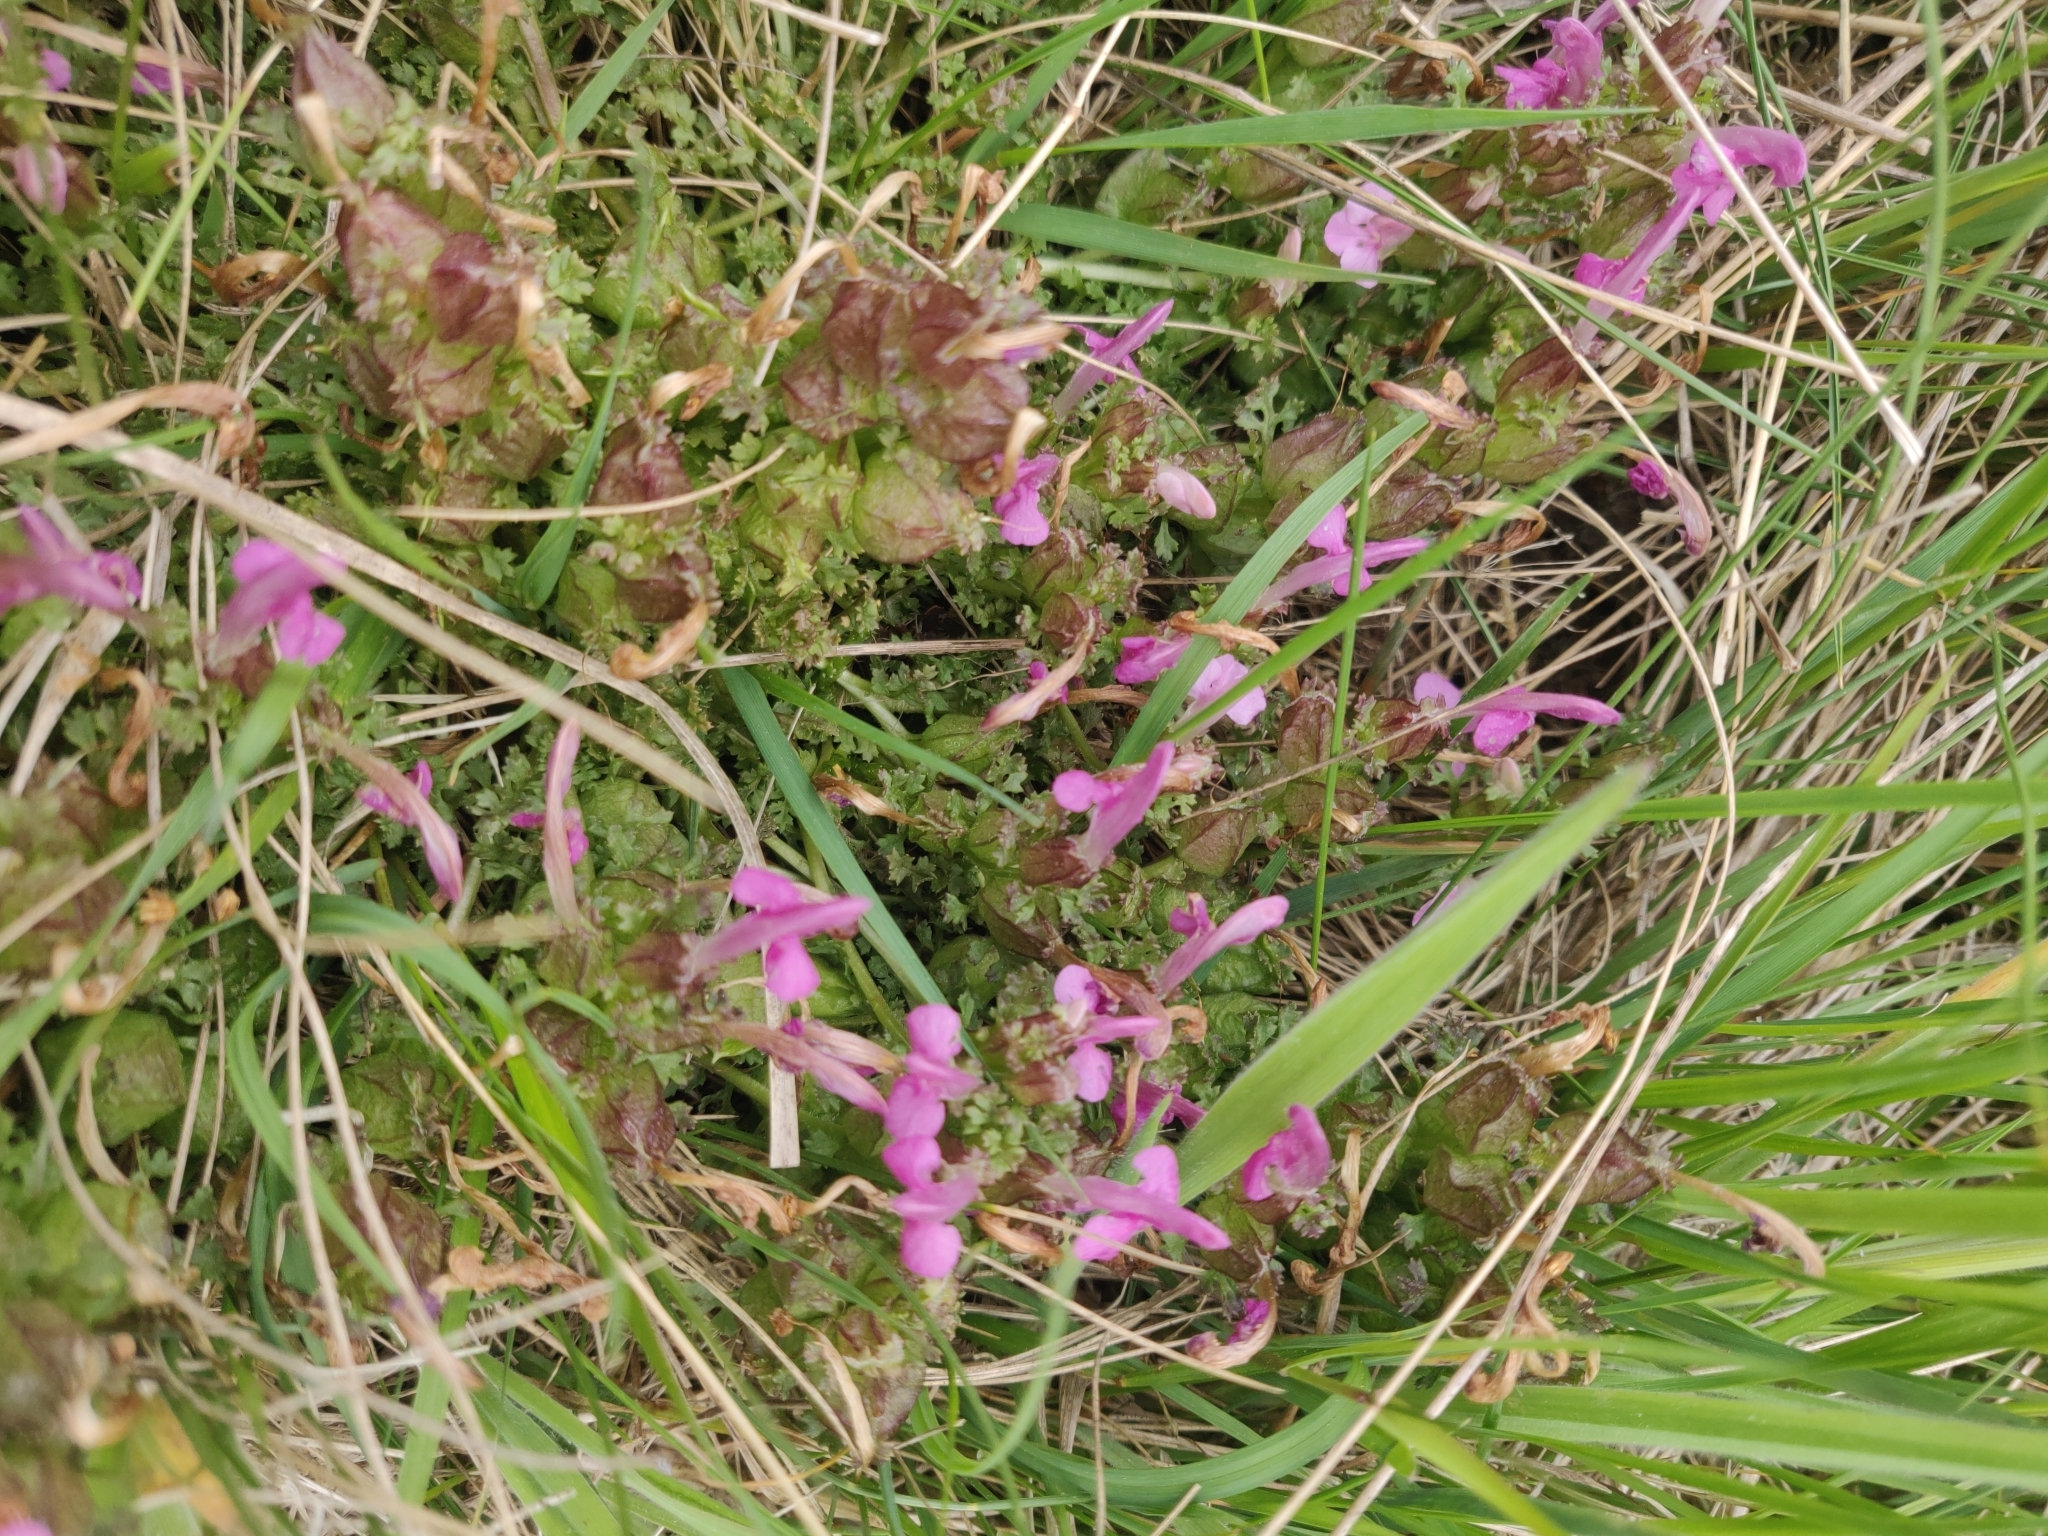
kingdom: Plantae
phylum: Tracheophyta
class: Magnoliopsida
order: Lamiales
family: Orobanchaceae
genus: Pedicularis
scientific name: Pedicularis sylvatica
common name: Lousewort
